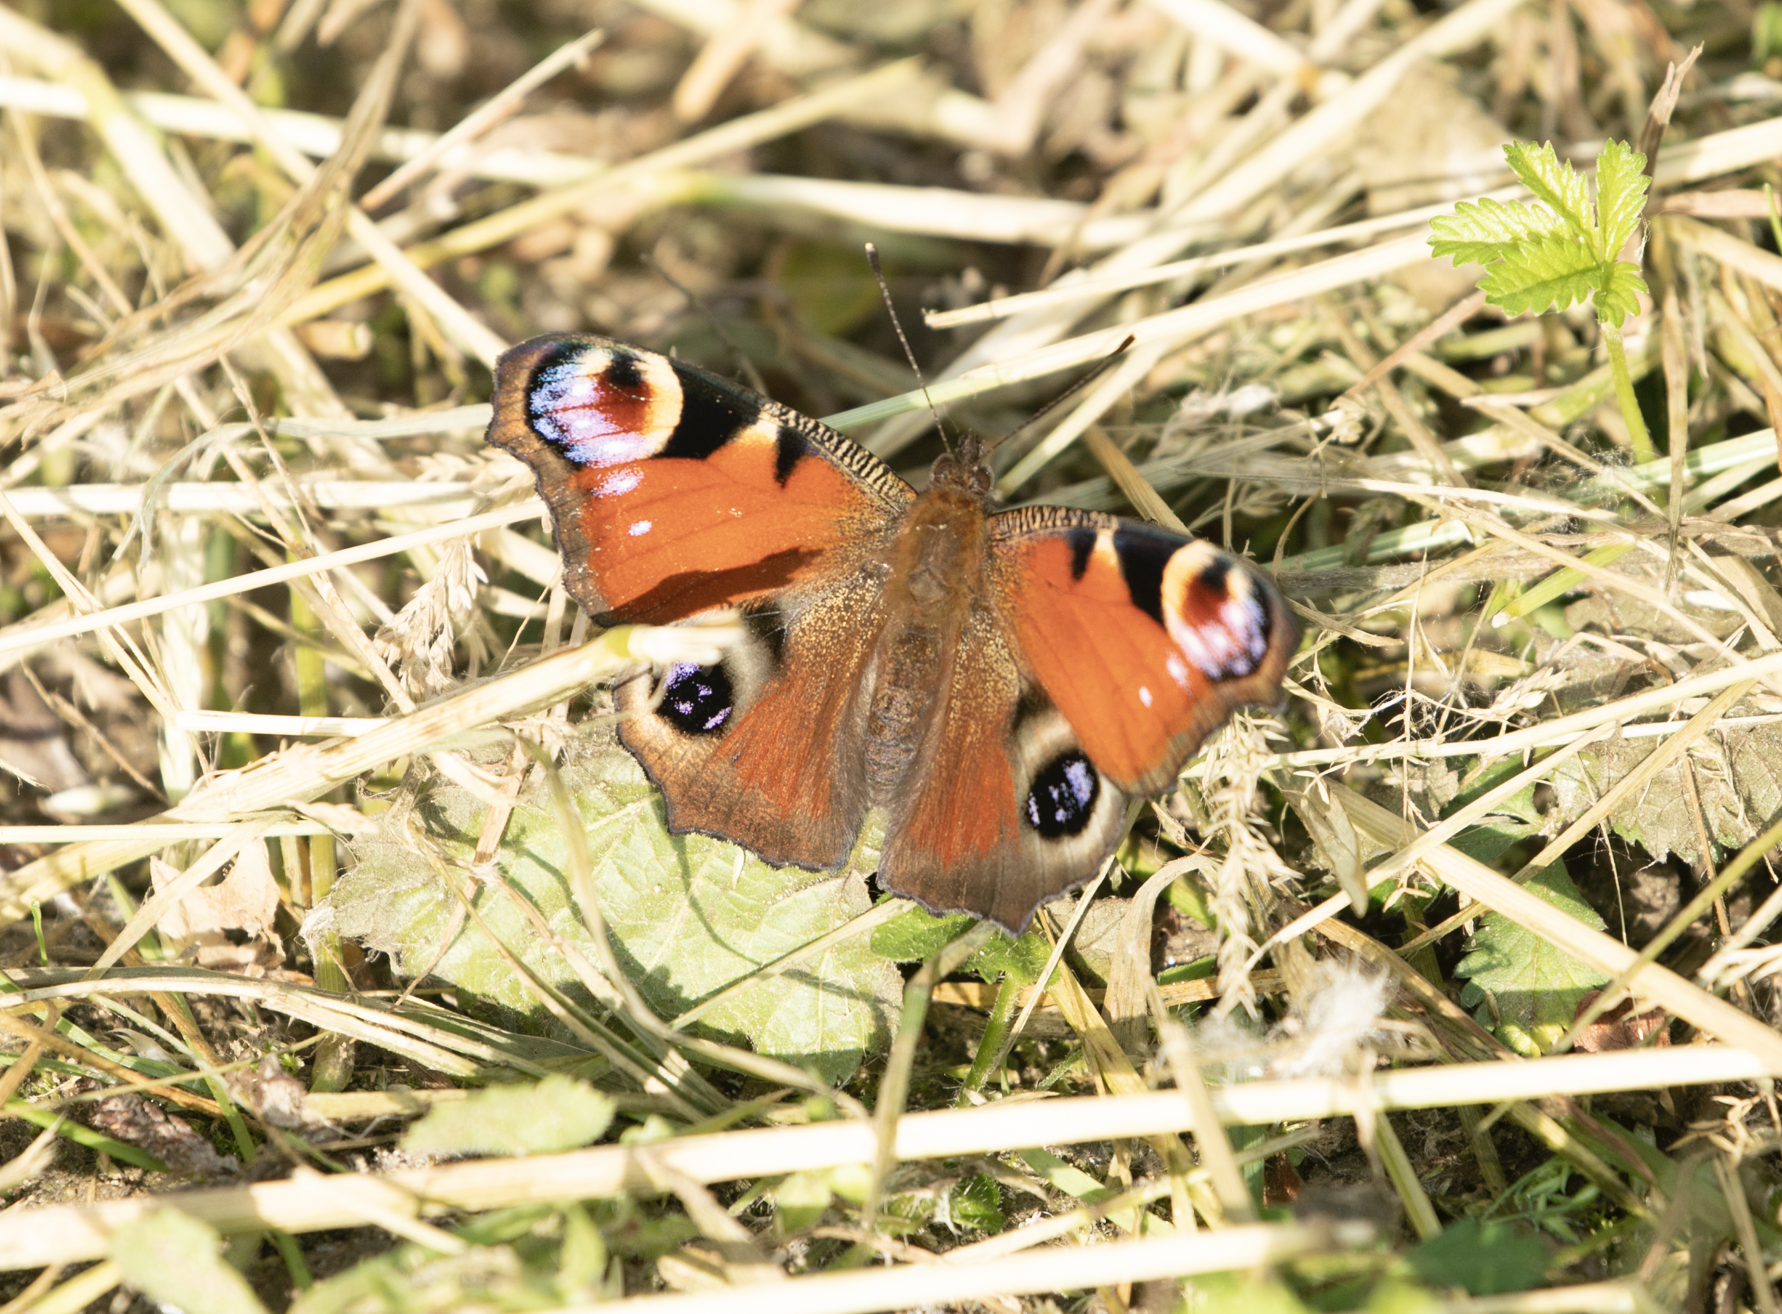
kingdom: Animalia
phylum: Arthropoda
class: Insecta
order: Lepidoptera
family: Nymphalidae
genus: Aglais
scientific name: Aglais io
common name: Peacock
